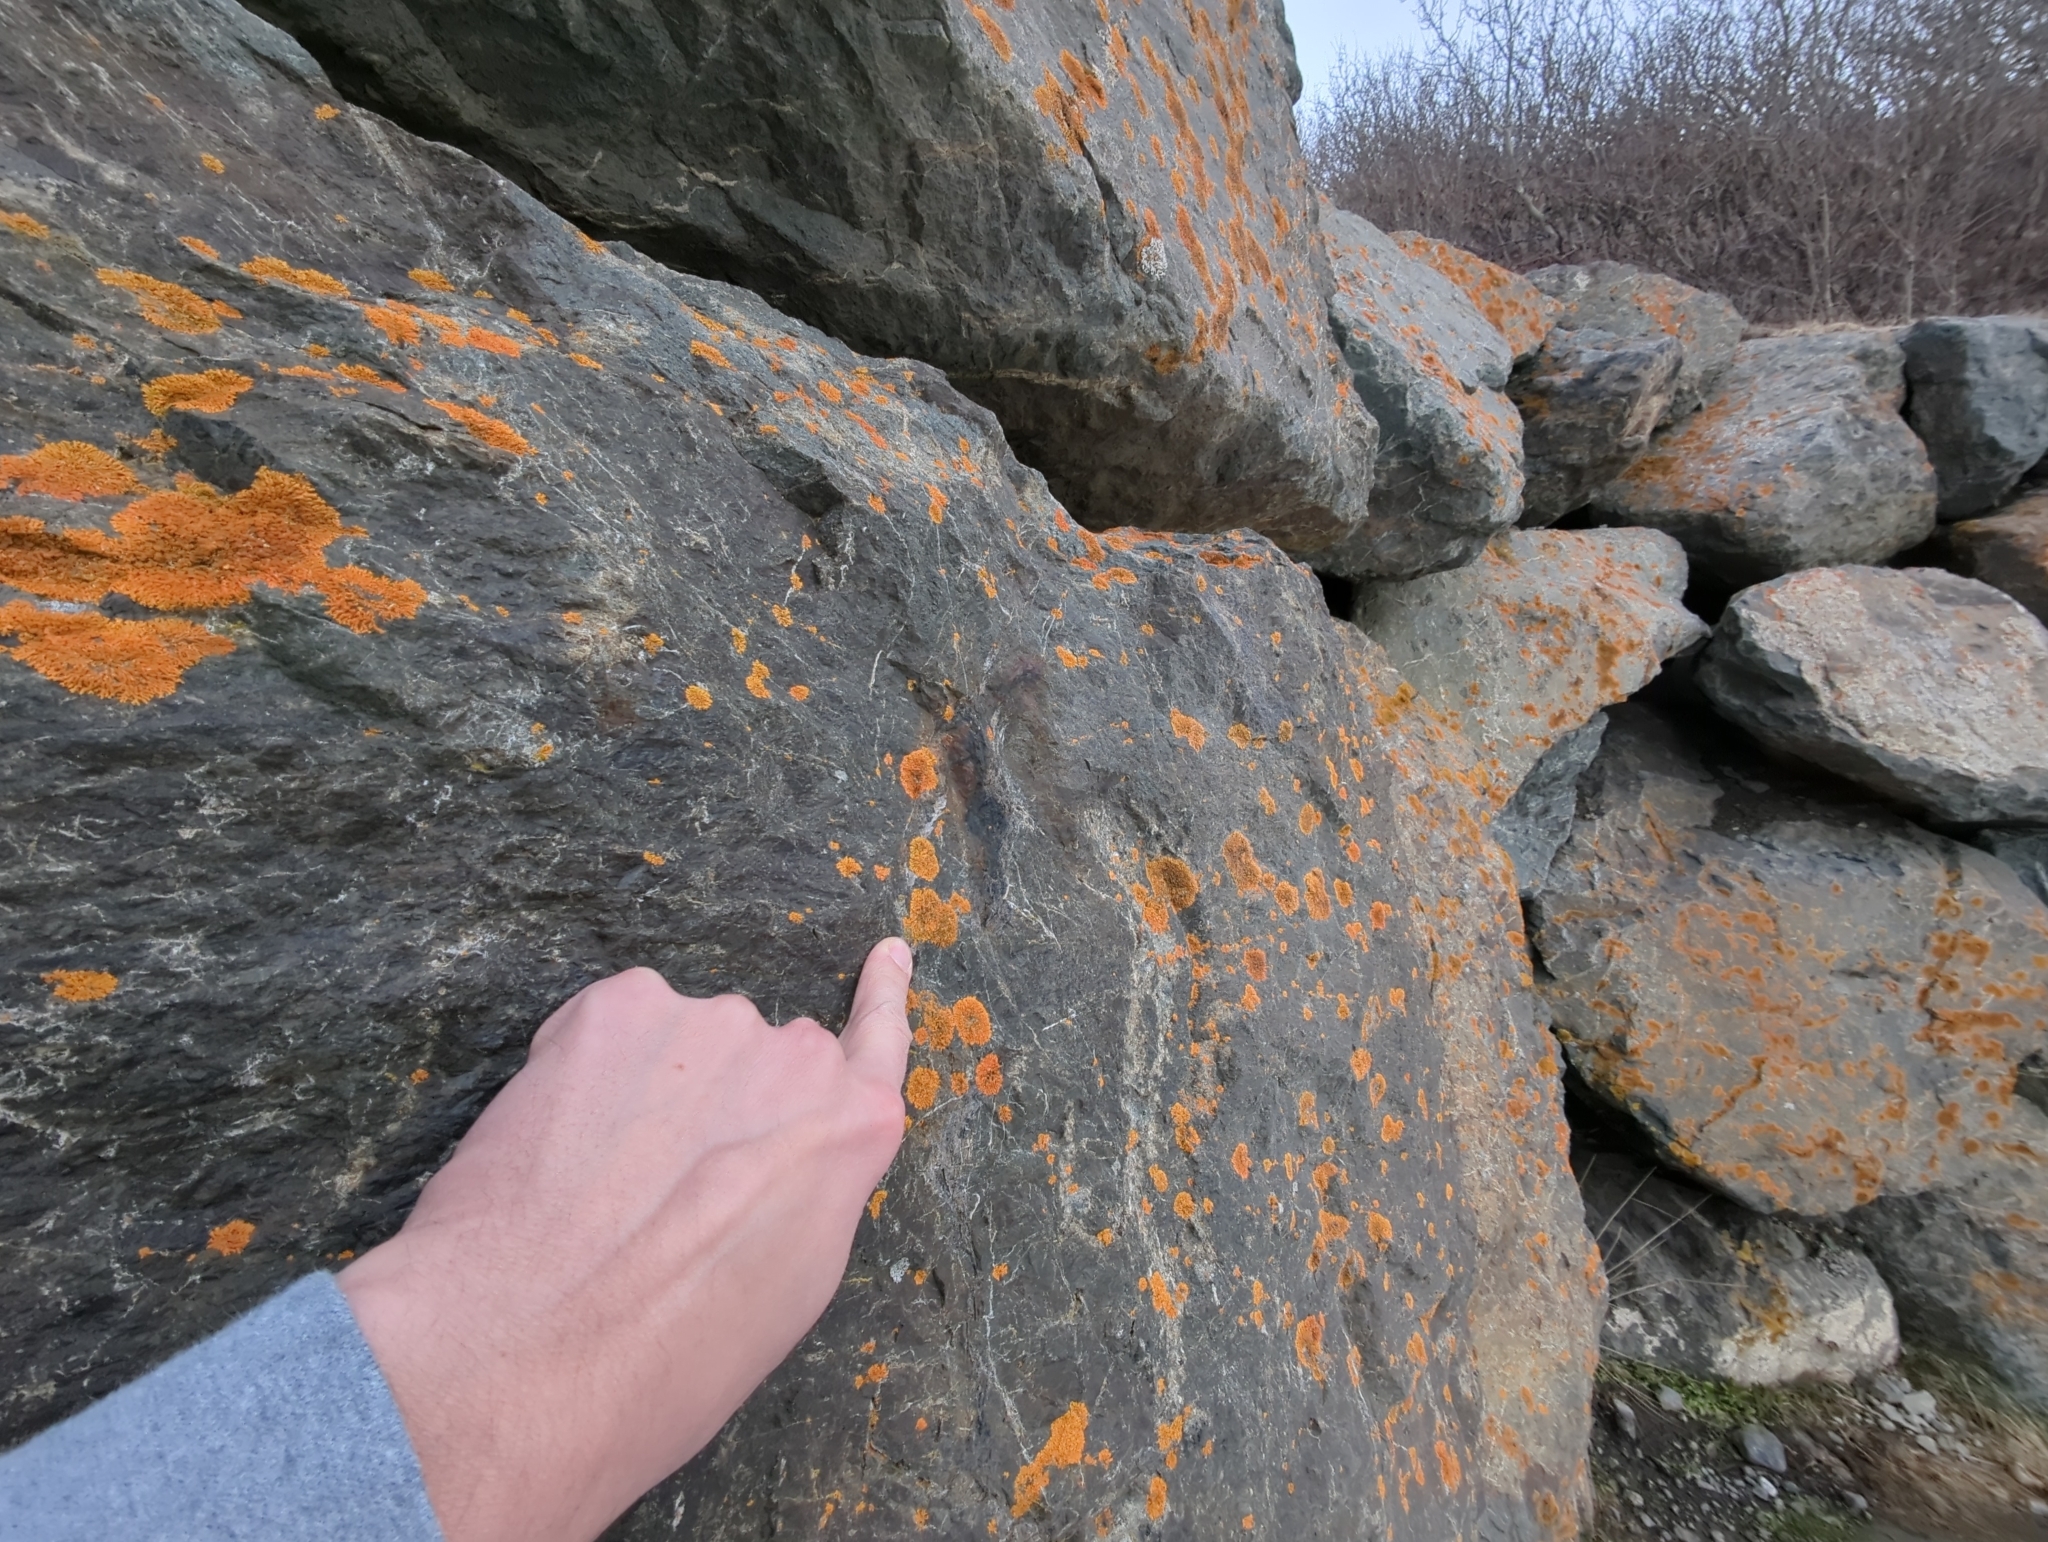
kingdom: Fungi
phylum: Ascomycota
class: Lecanoromycetes
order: Teloschistales
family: Teloschistaceae
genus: Xanthoria
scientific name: Xanthoria elegans
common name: Elegant sunburst lichen
